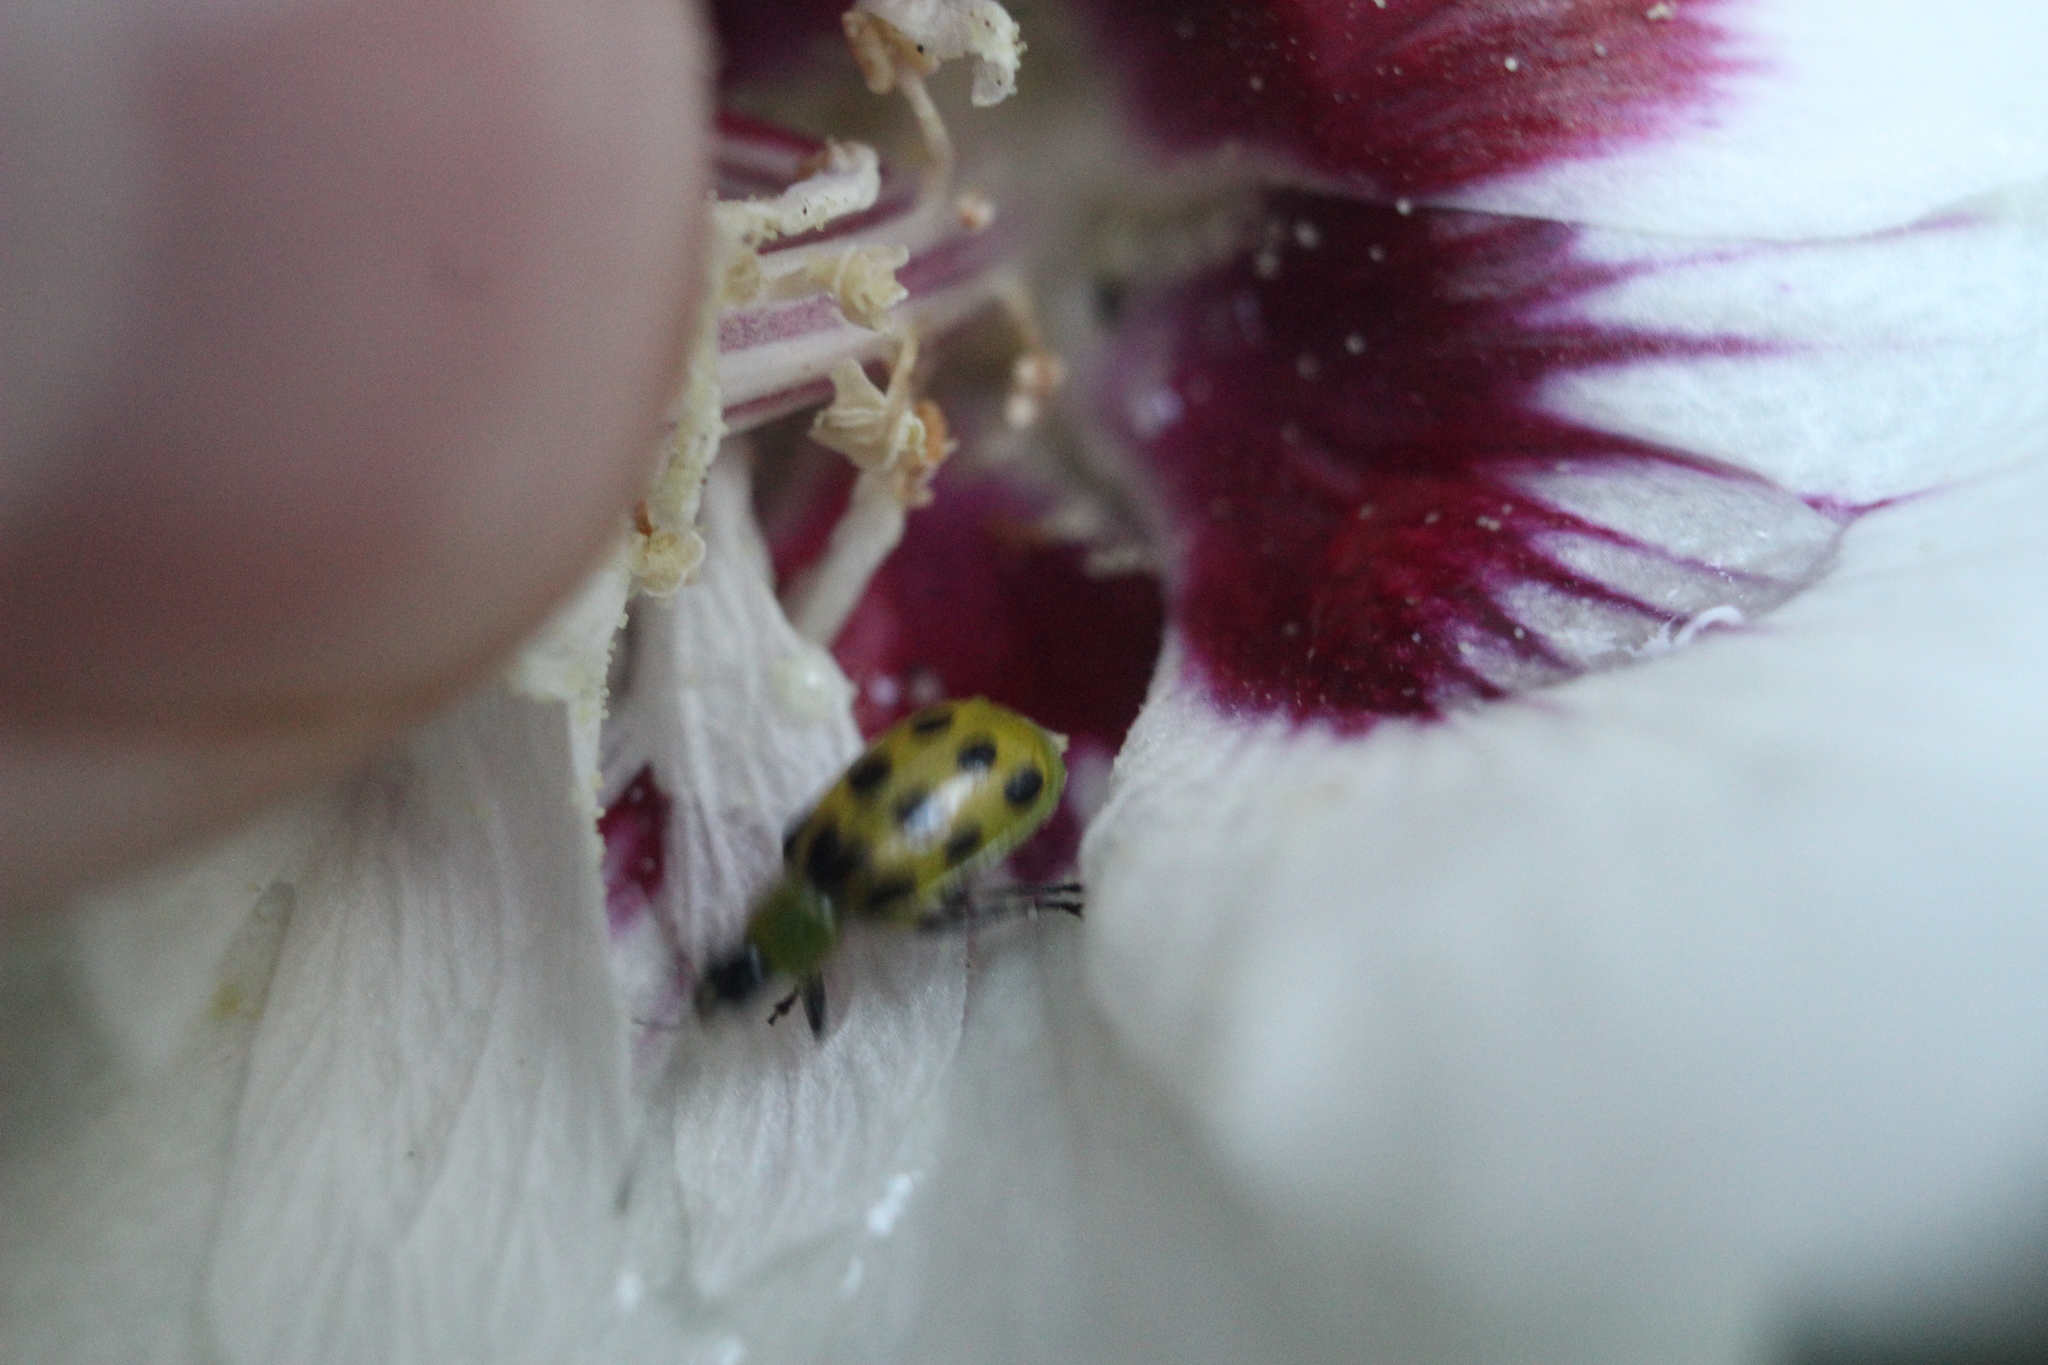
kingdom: Animalia
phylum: Arthropoda
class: Insecta
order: Coleoptera
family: Chrysomelidae
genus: Diabrotica
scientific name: Diabrotica undecimpunctata
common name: Spotted cucumber beetle
